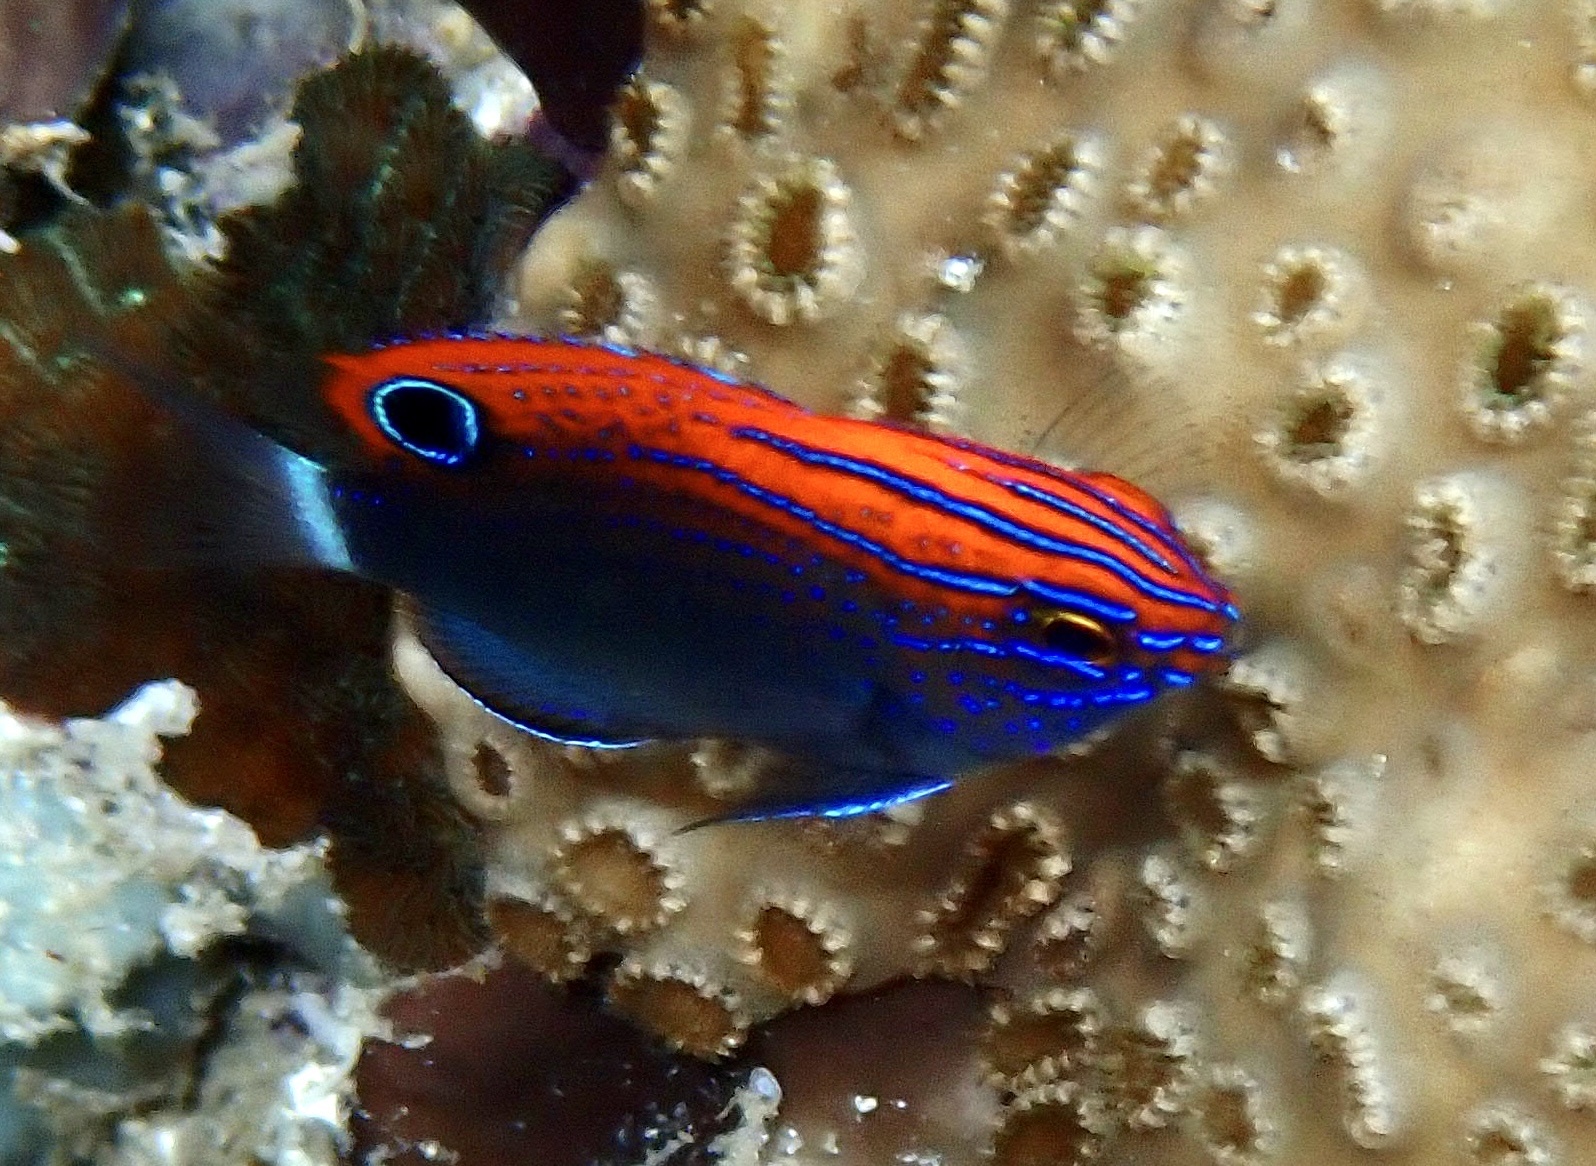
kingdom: Animalia
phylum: Chordata
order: Perciformes
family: Pomacentridae
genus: Pomacentrus
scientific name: Pomacentrus bankanensis
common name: Speckled damsel
